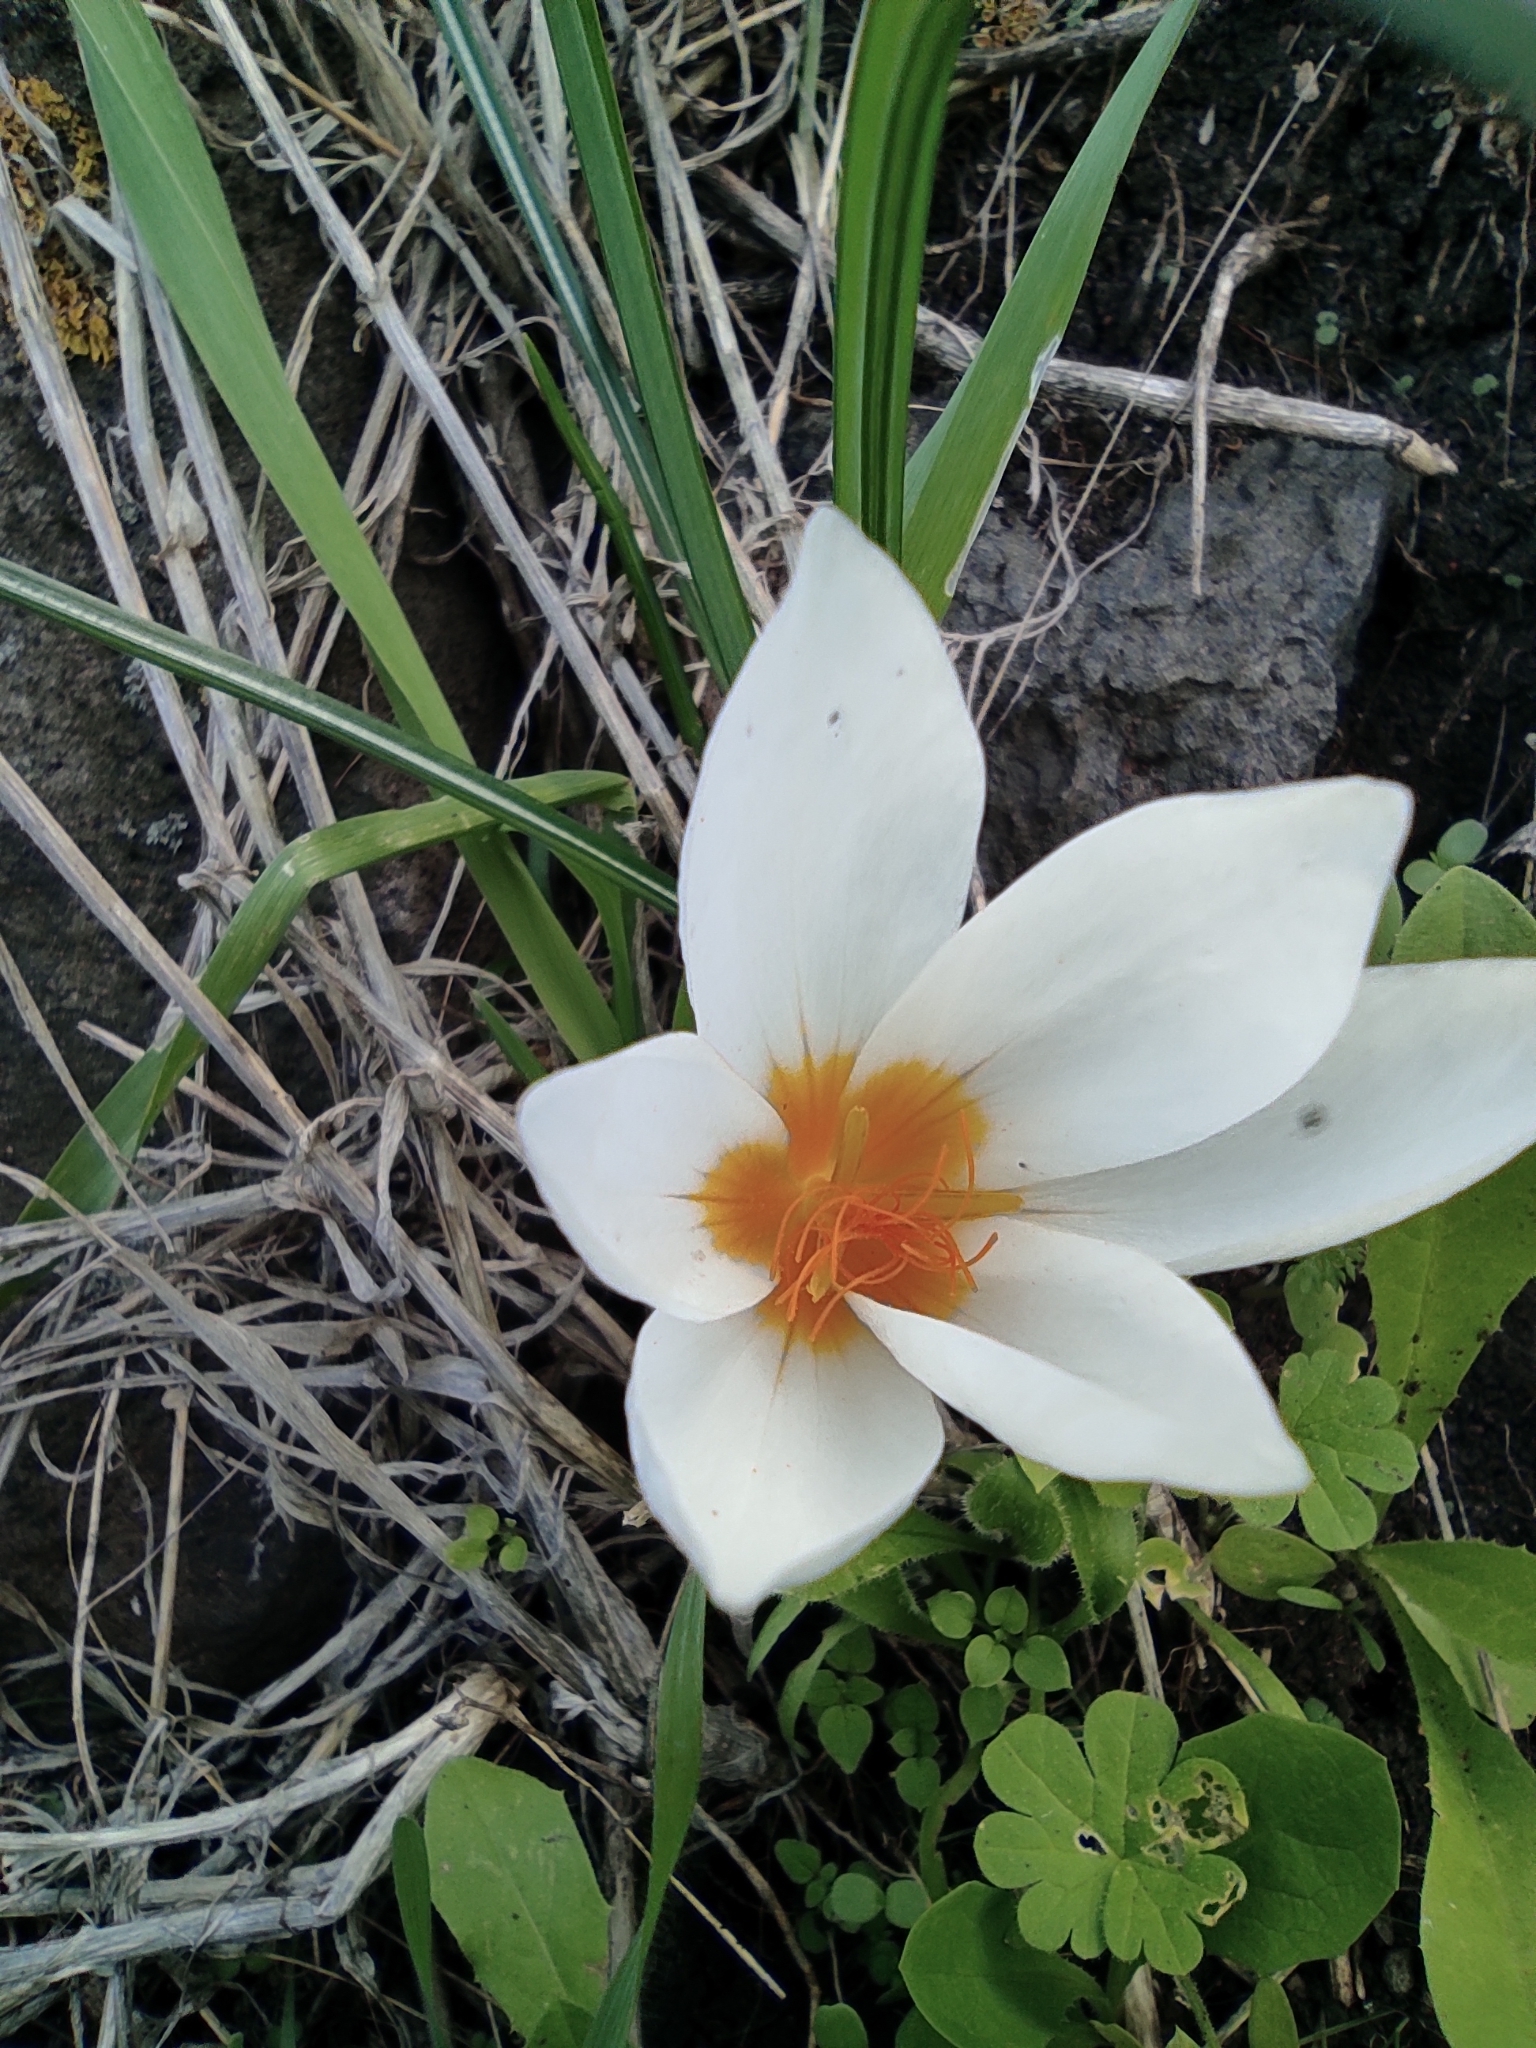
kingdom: Plantae
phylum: Tracheophyta
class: Liliopsida
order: Asparagales
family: Iridaceae
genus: Crocus
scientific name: Crocus aleppicus
